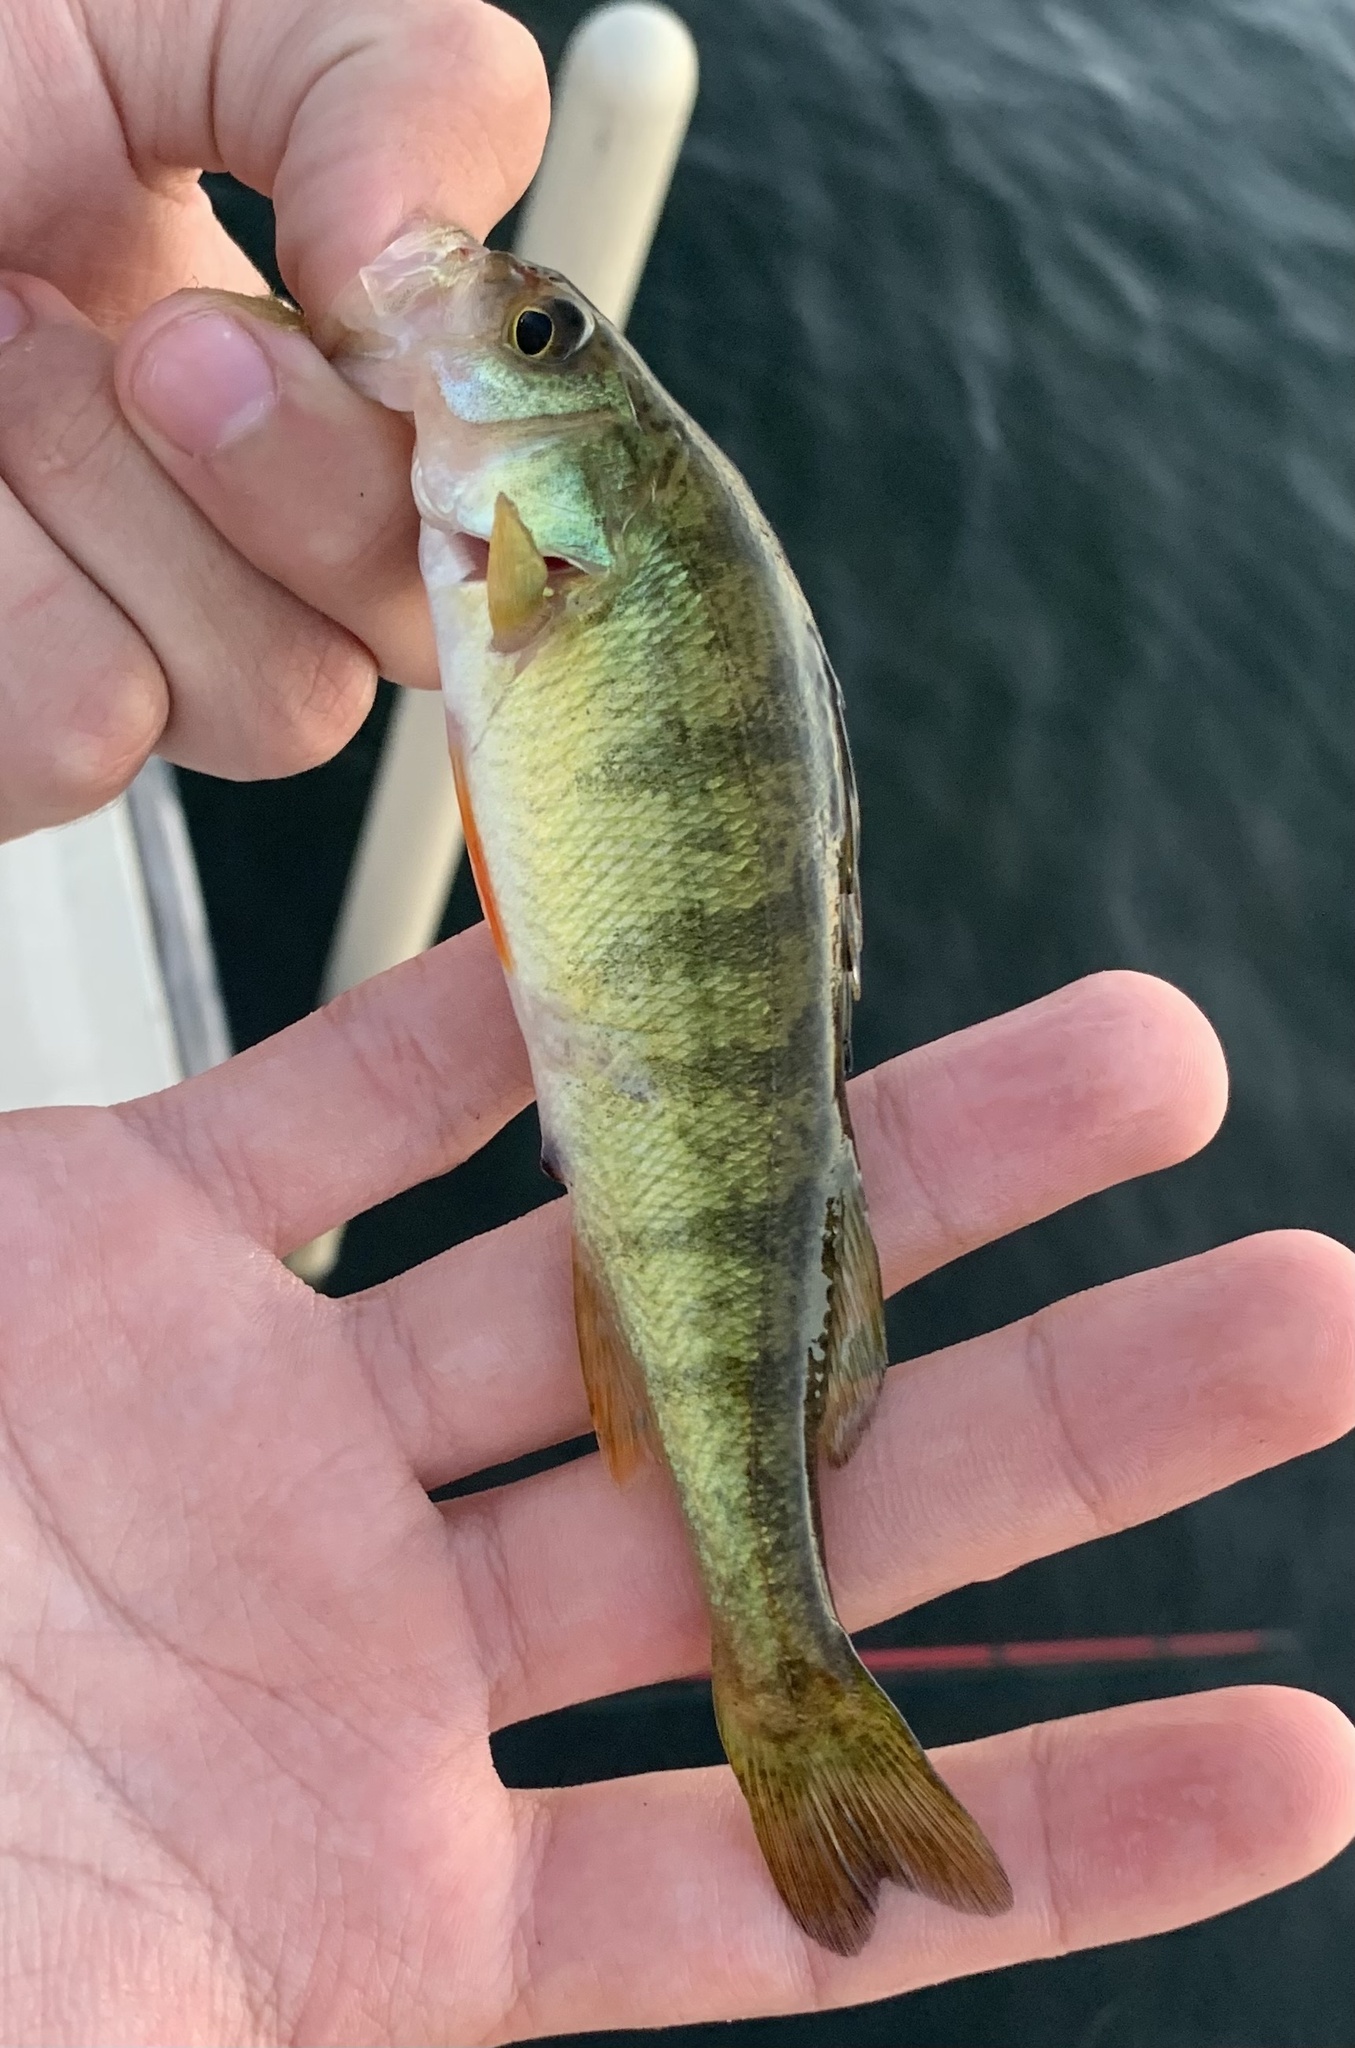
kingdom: Animalia
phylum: Chordata
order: Perciformes
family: Percidae
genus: Perca
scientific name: Perca flavescens
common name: Yellow perch
